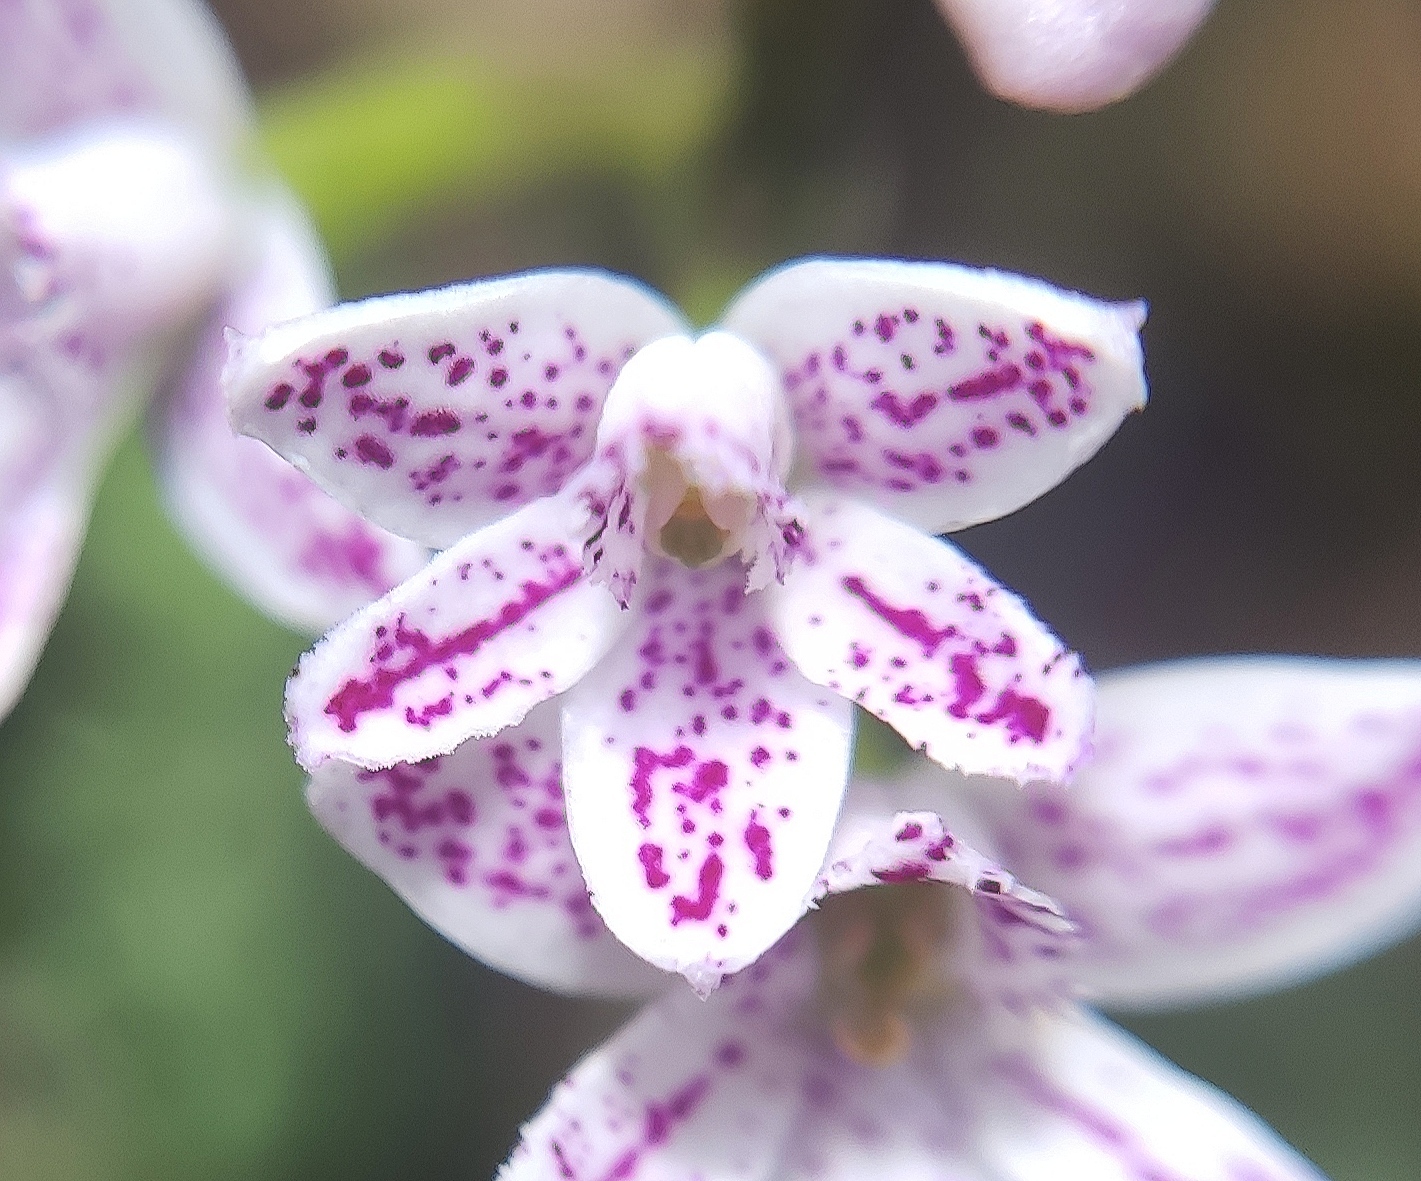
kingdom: Plantae
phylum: Tracheophyta
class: Liliopsida
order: Asparagales
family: Orchidaceae
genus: Epidendrum
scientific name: Epidendrum fimbriatum
